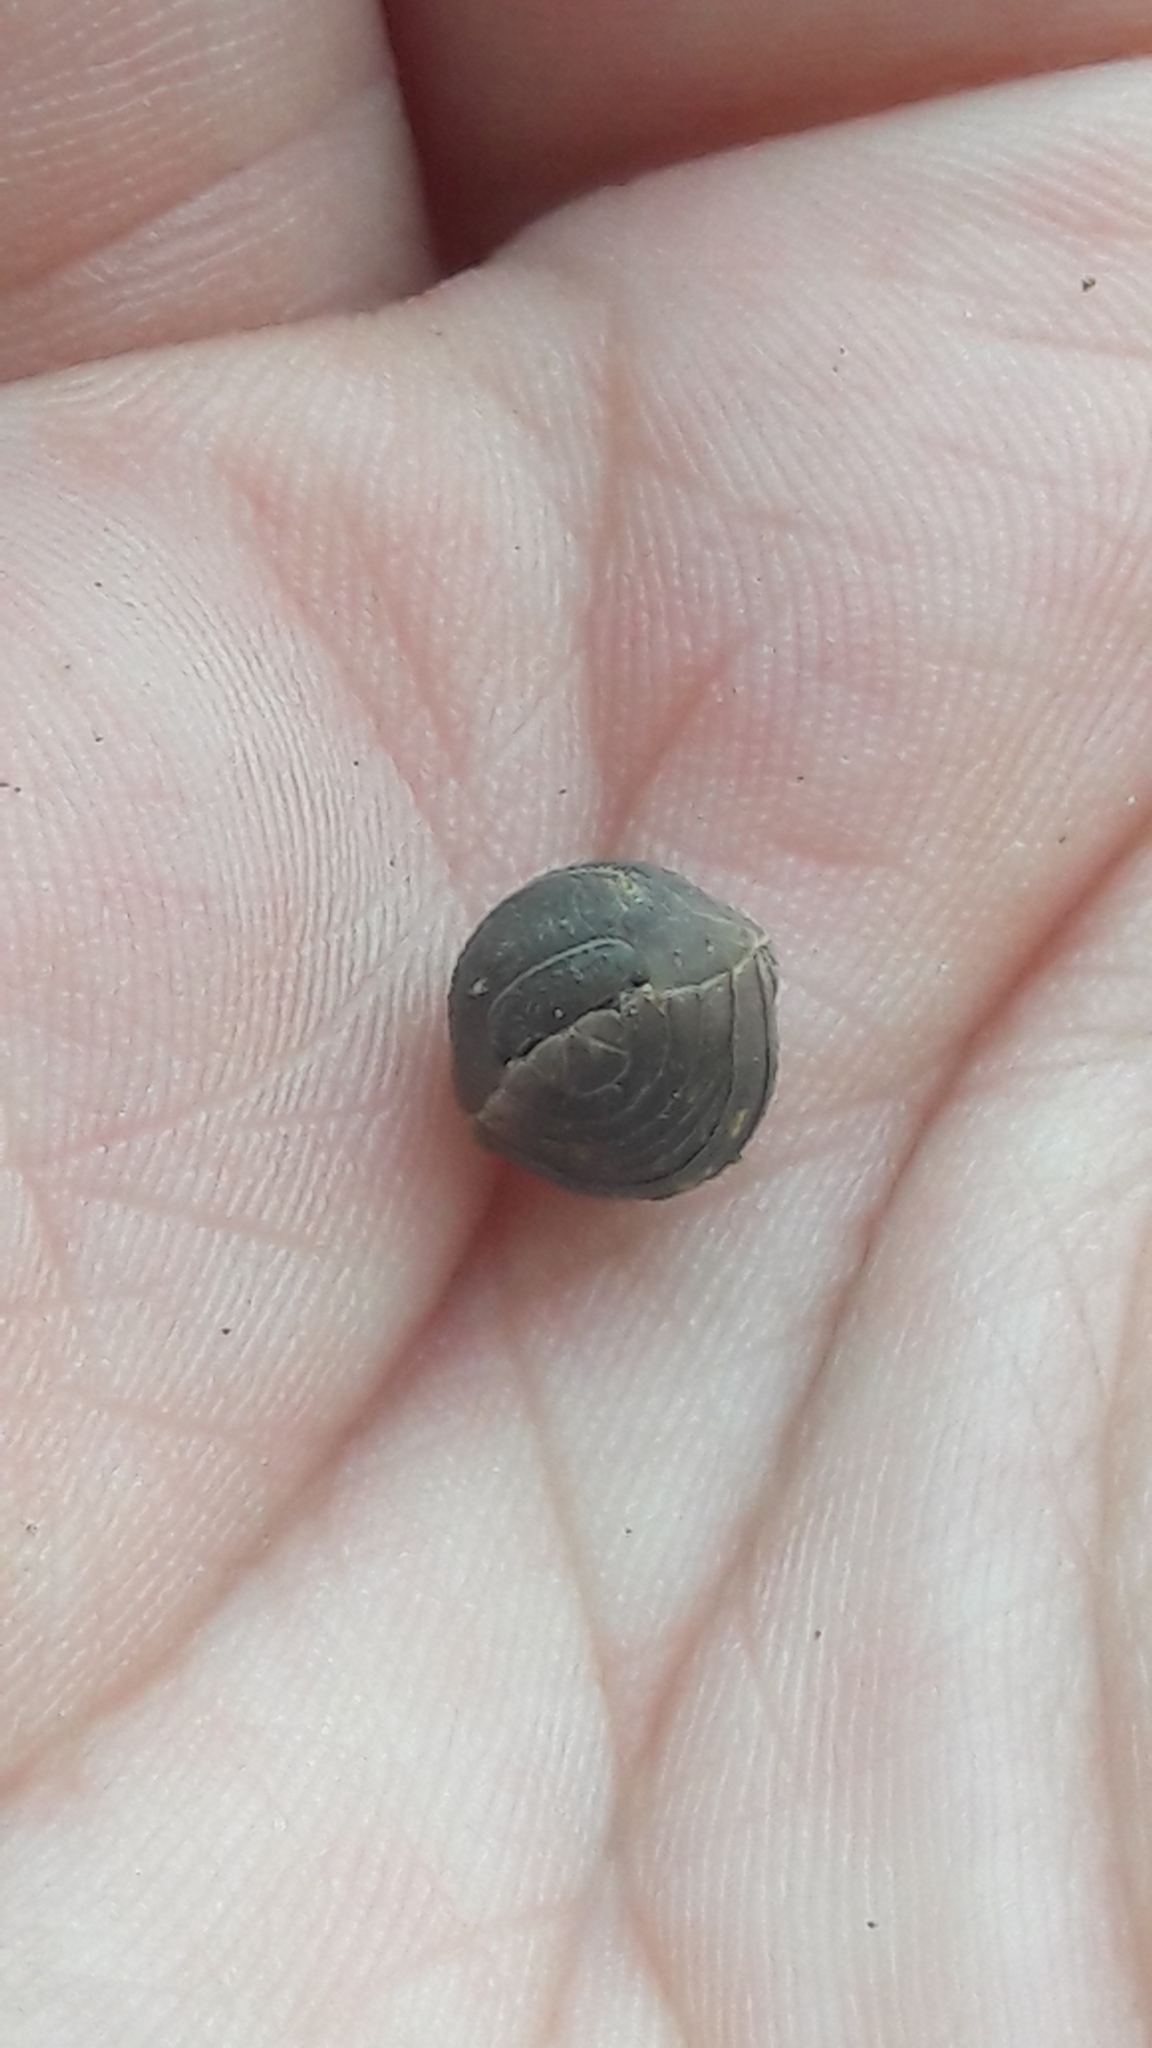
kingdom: Animalia
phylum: Arthropoda
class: Malacostraca
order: Isopoda
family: Armadillidiidae
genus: Armadillidium
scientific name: Armadillidium granulatum
